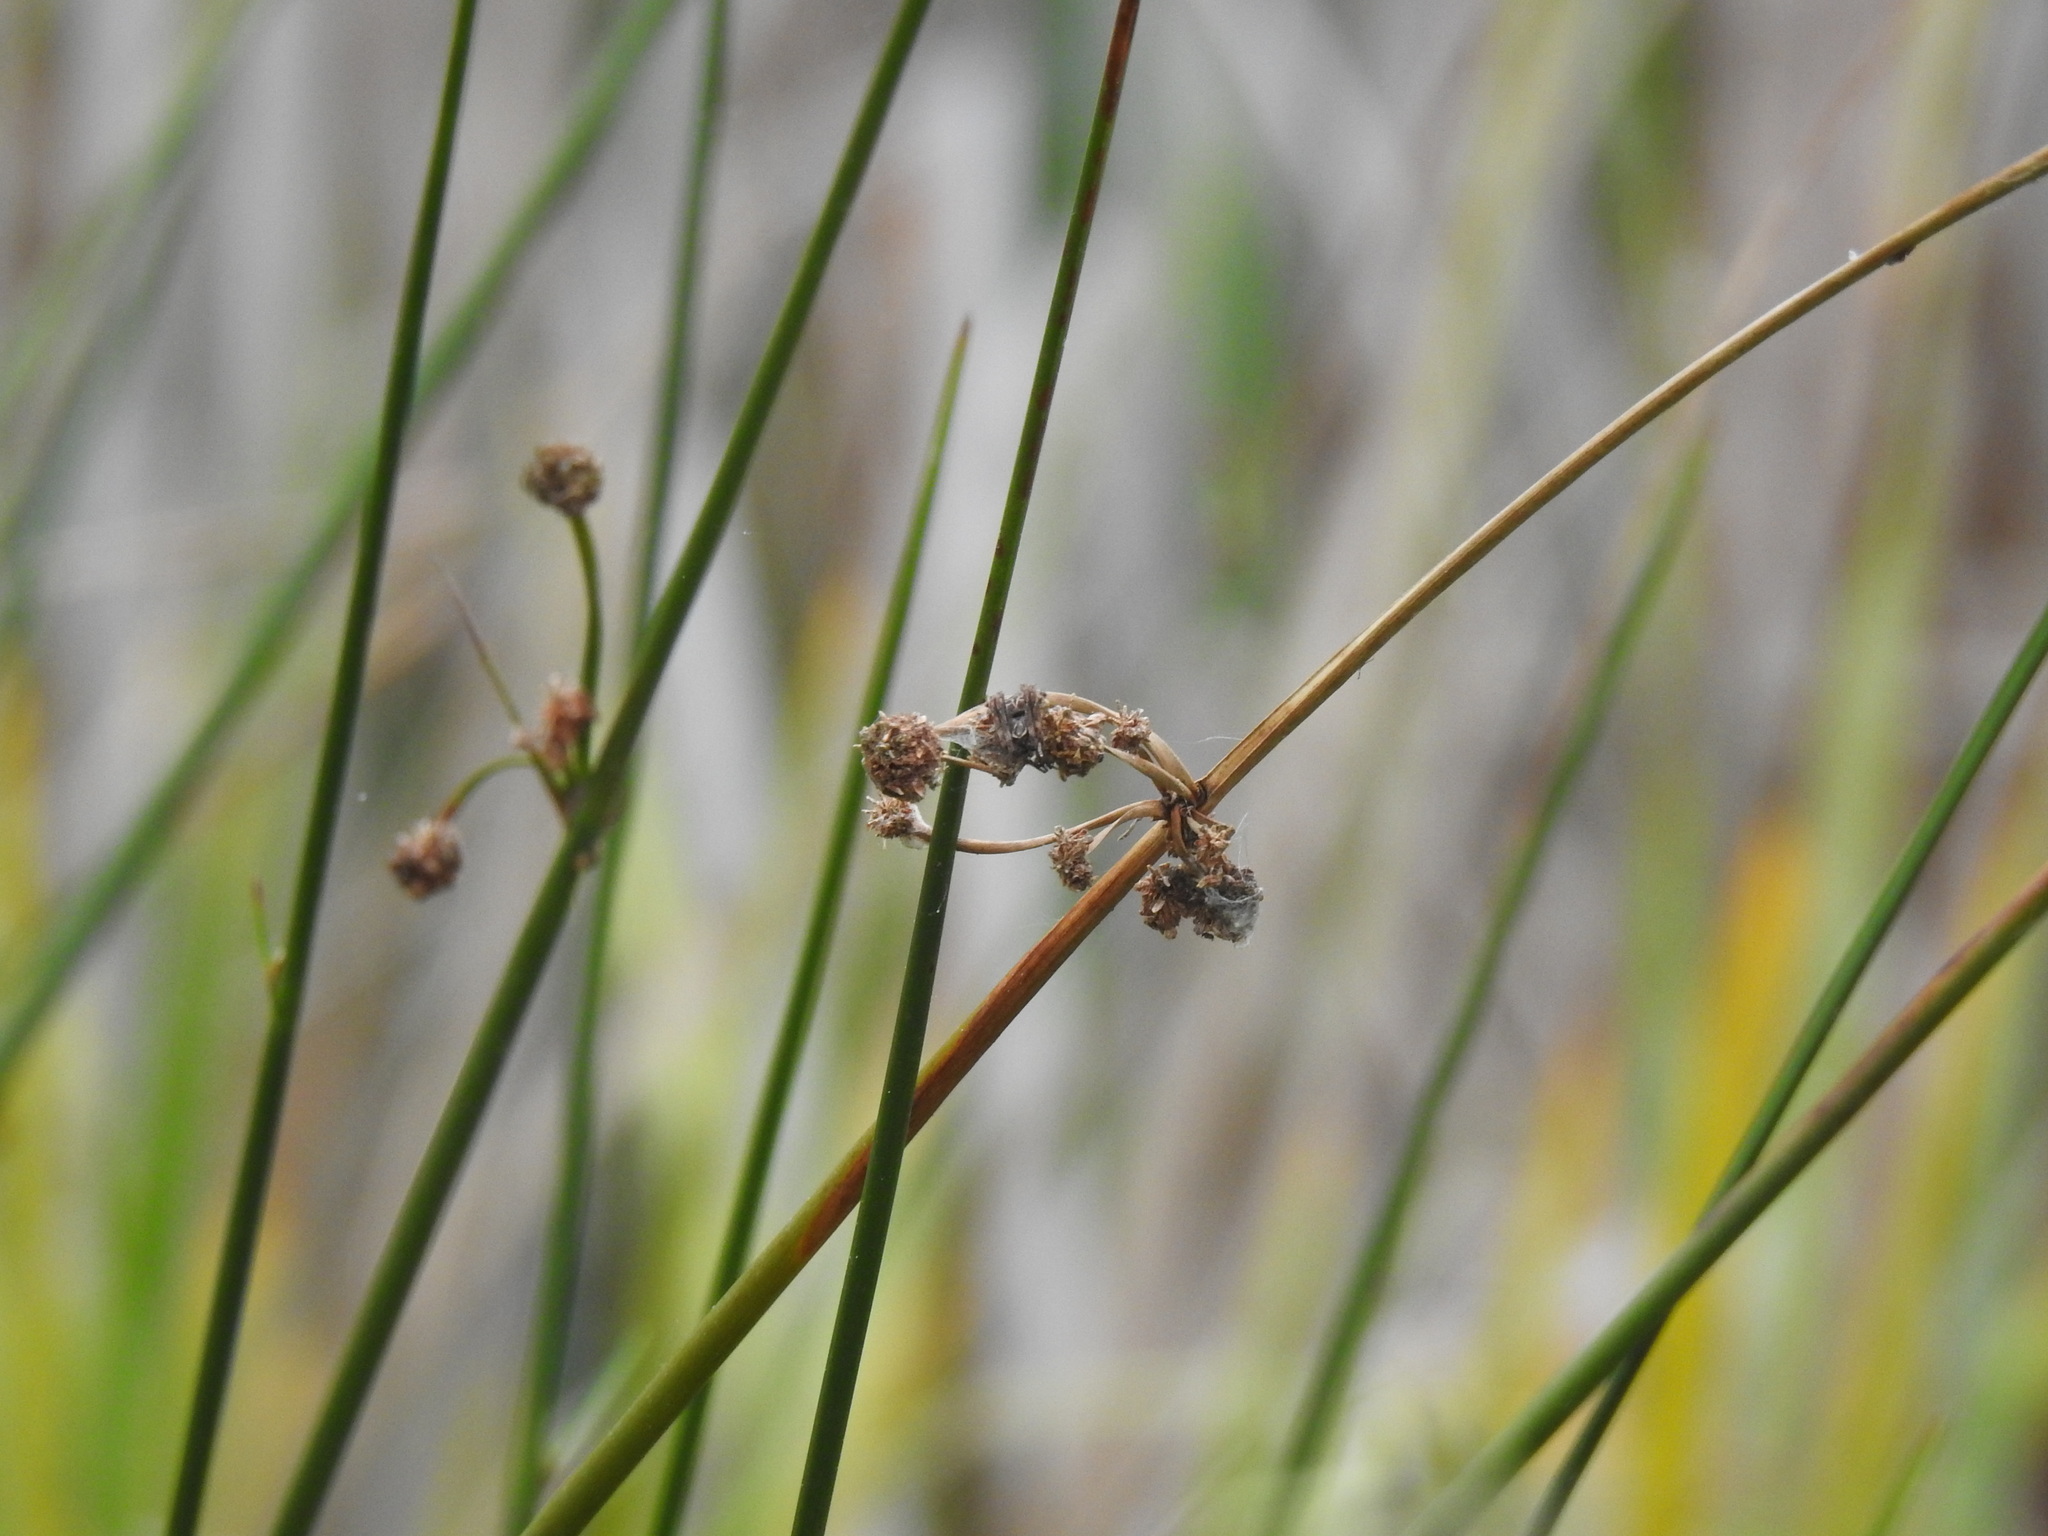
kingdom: Plantae
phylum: Tracheophyta
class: Liliopsida
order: Poales
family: Cyperaceae
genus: Scirpoides
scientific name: Scirpoides holoschoenus
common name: Round-headed club-rush
